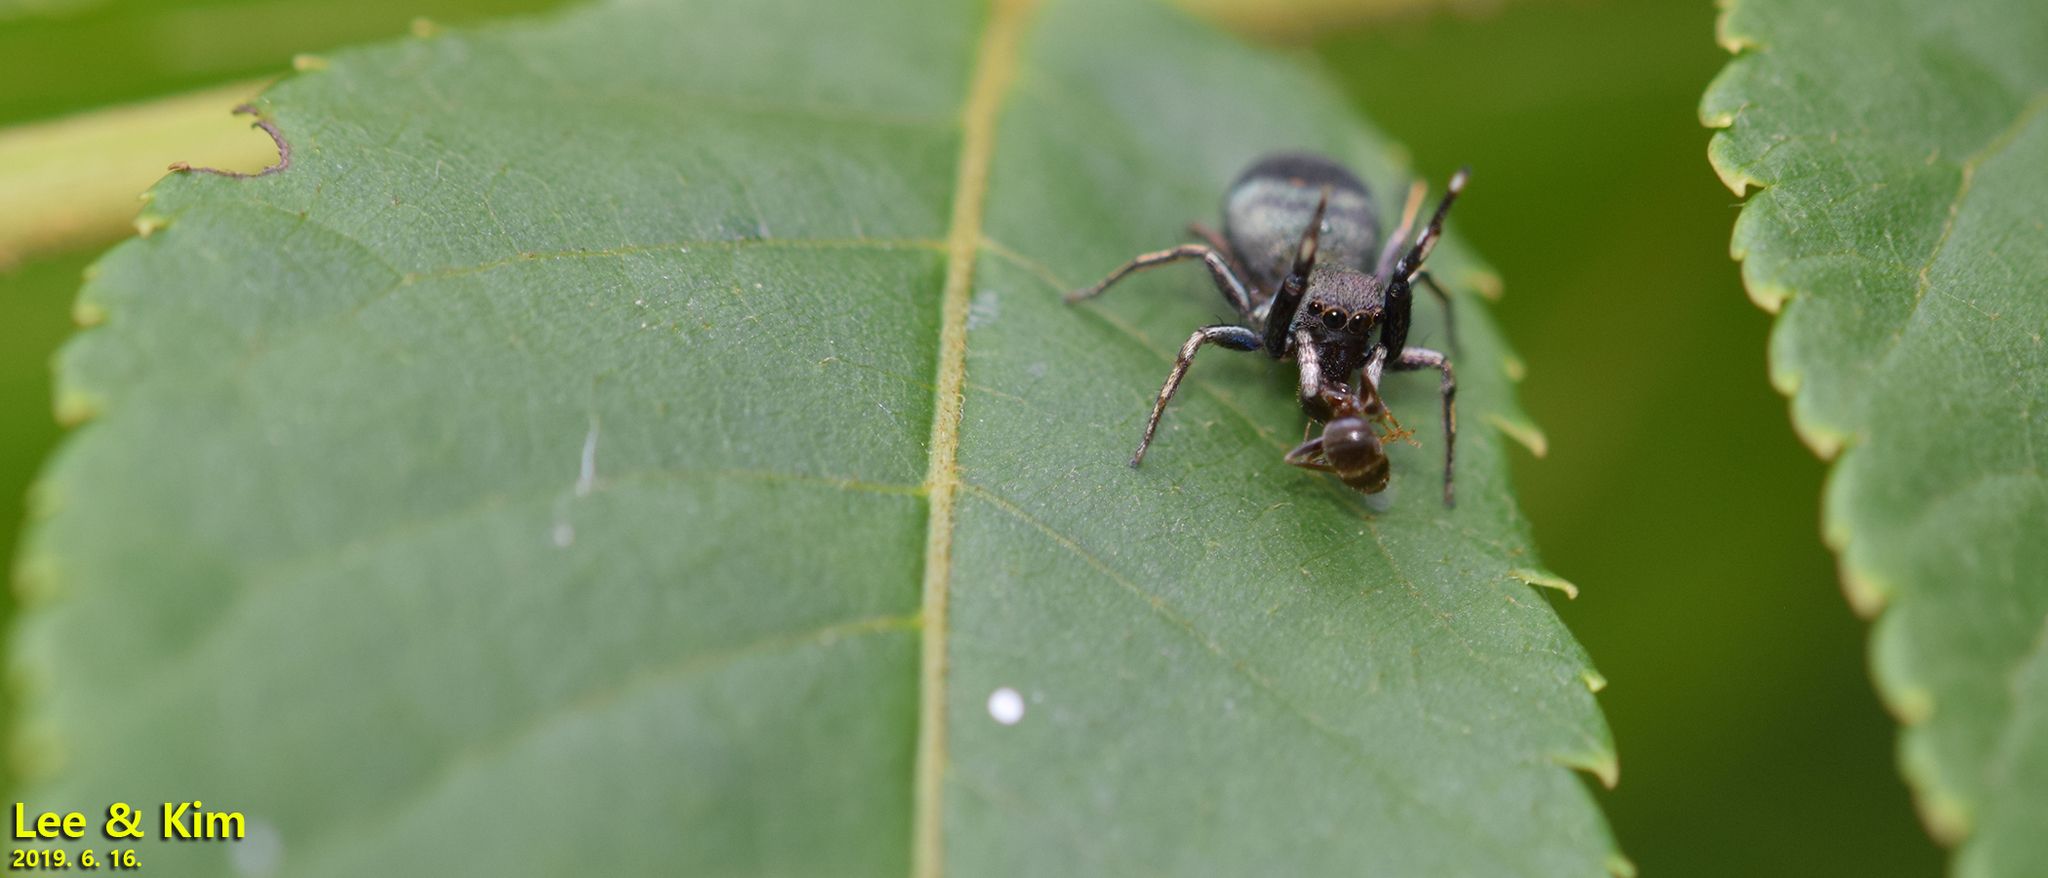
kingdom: Animalia
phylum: Arthropoda
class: Arachnida
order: Araneae
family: Salticidae
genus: Siler
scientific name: Siler cupreus
